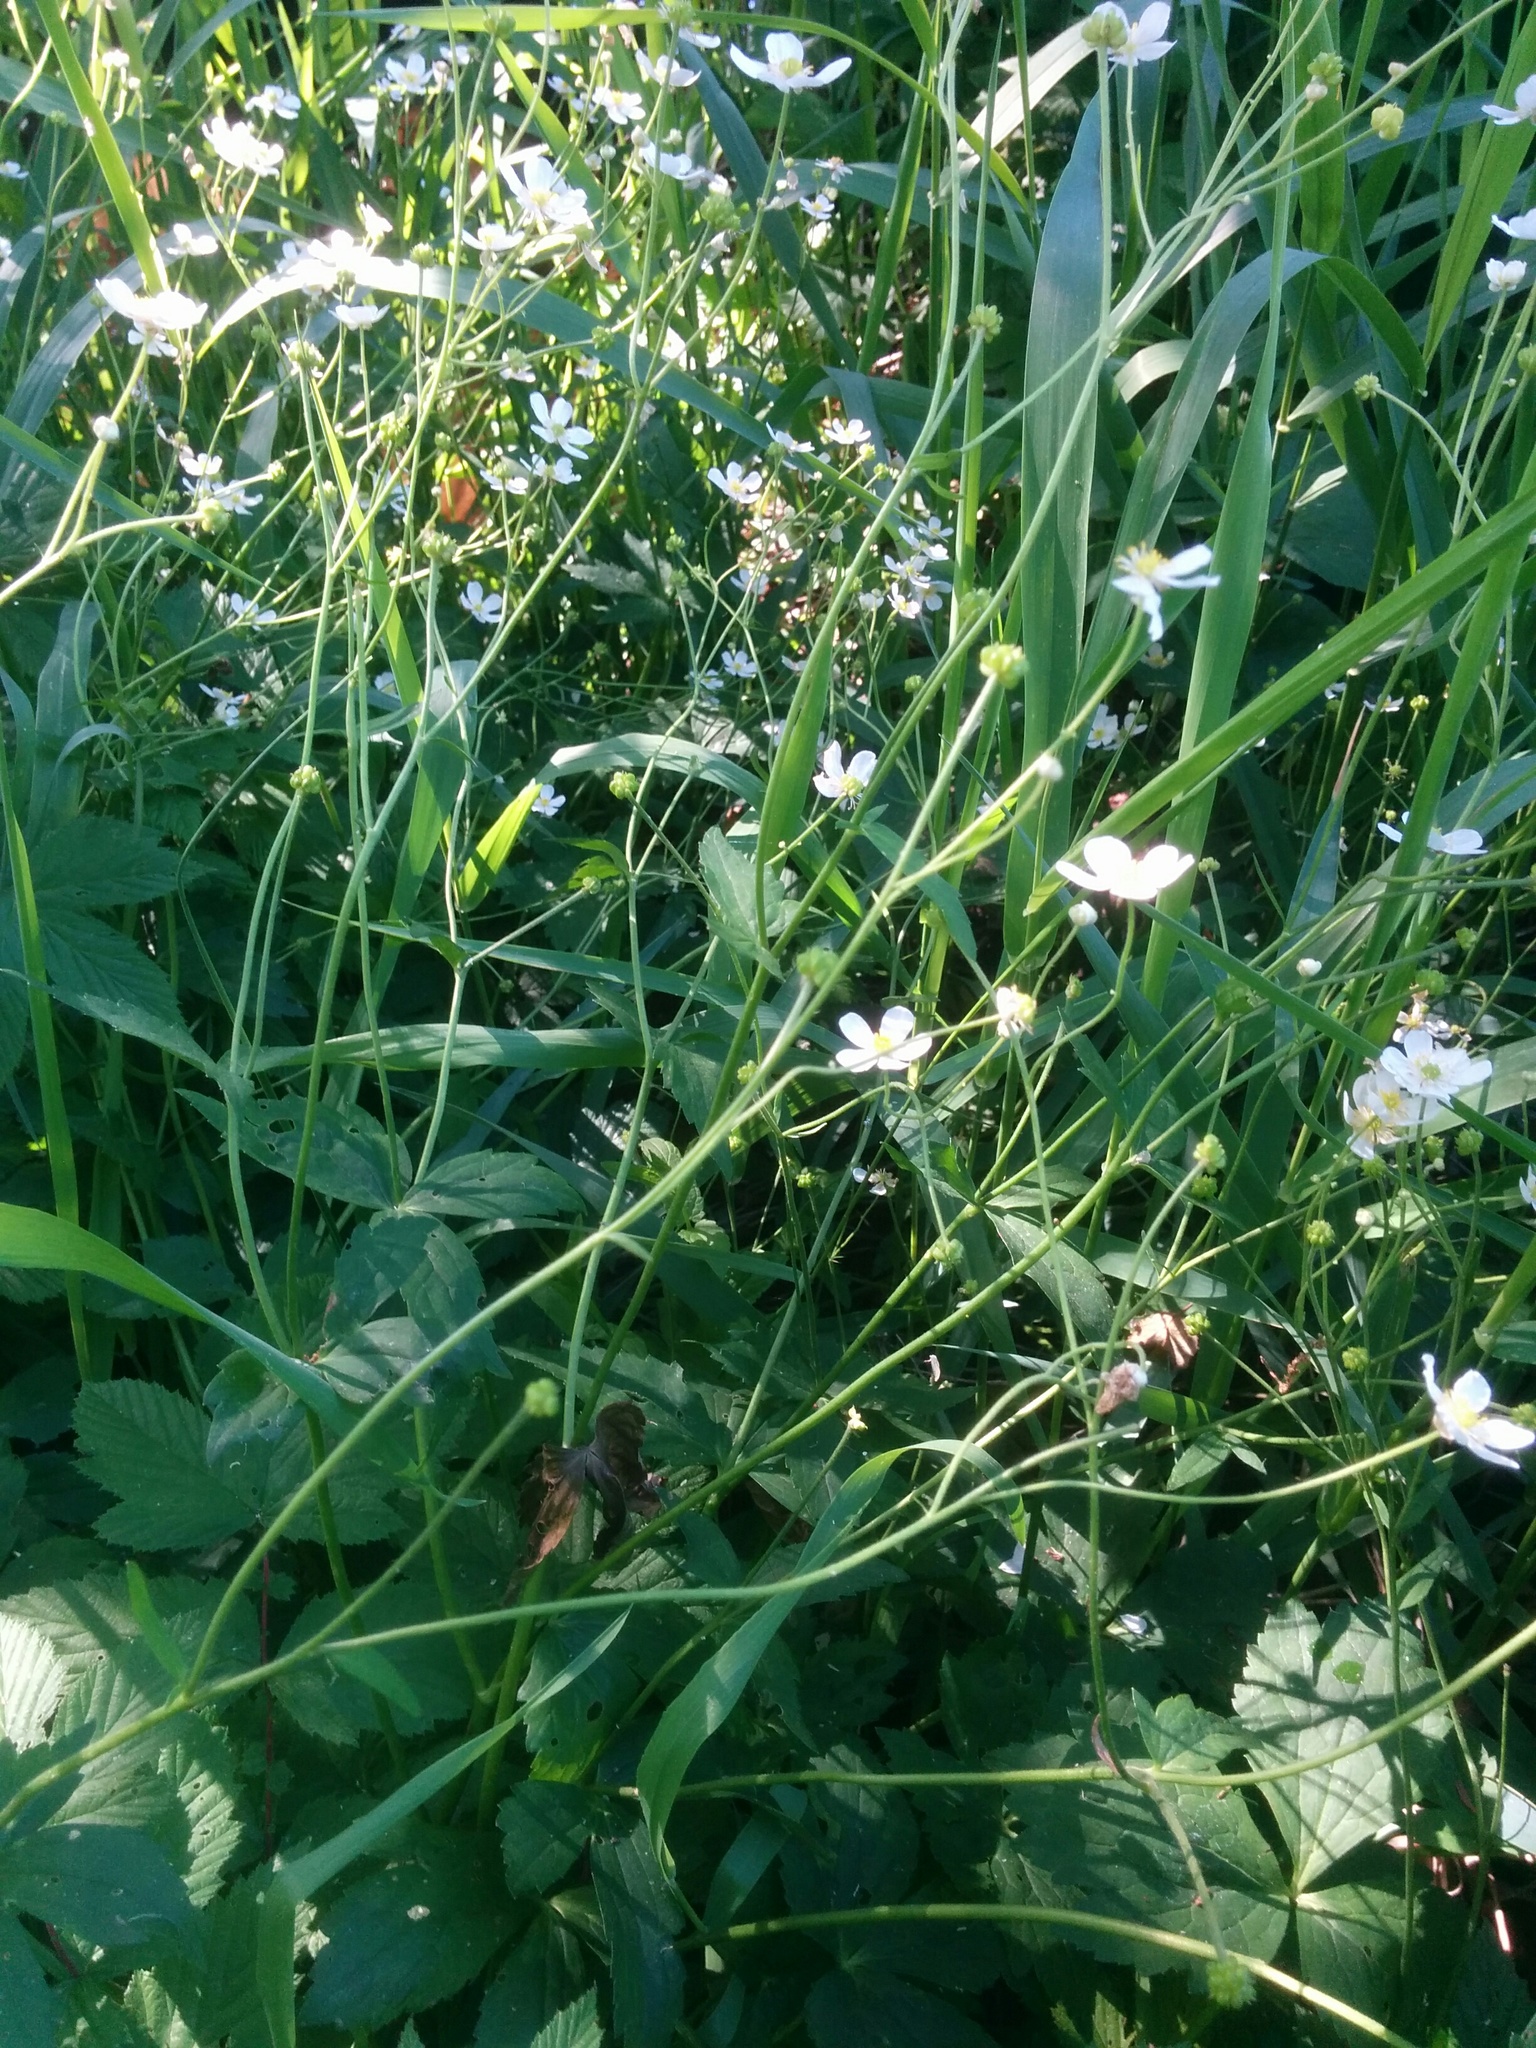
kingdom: Plantae
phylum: Tracheophyta
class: Magnoliopsida
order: Ranunculales
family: Ranunculaceae
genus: Ranunculus
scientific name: Ranunculus aconitifolius
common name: Aconite-leaved buttercup
